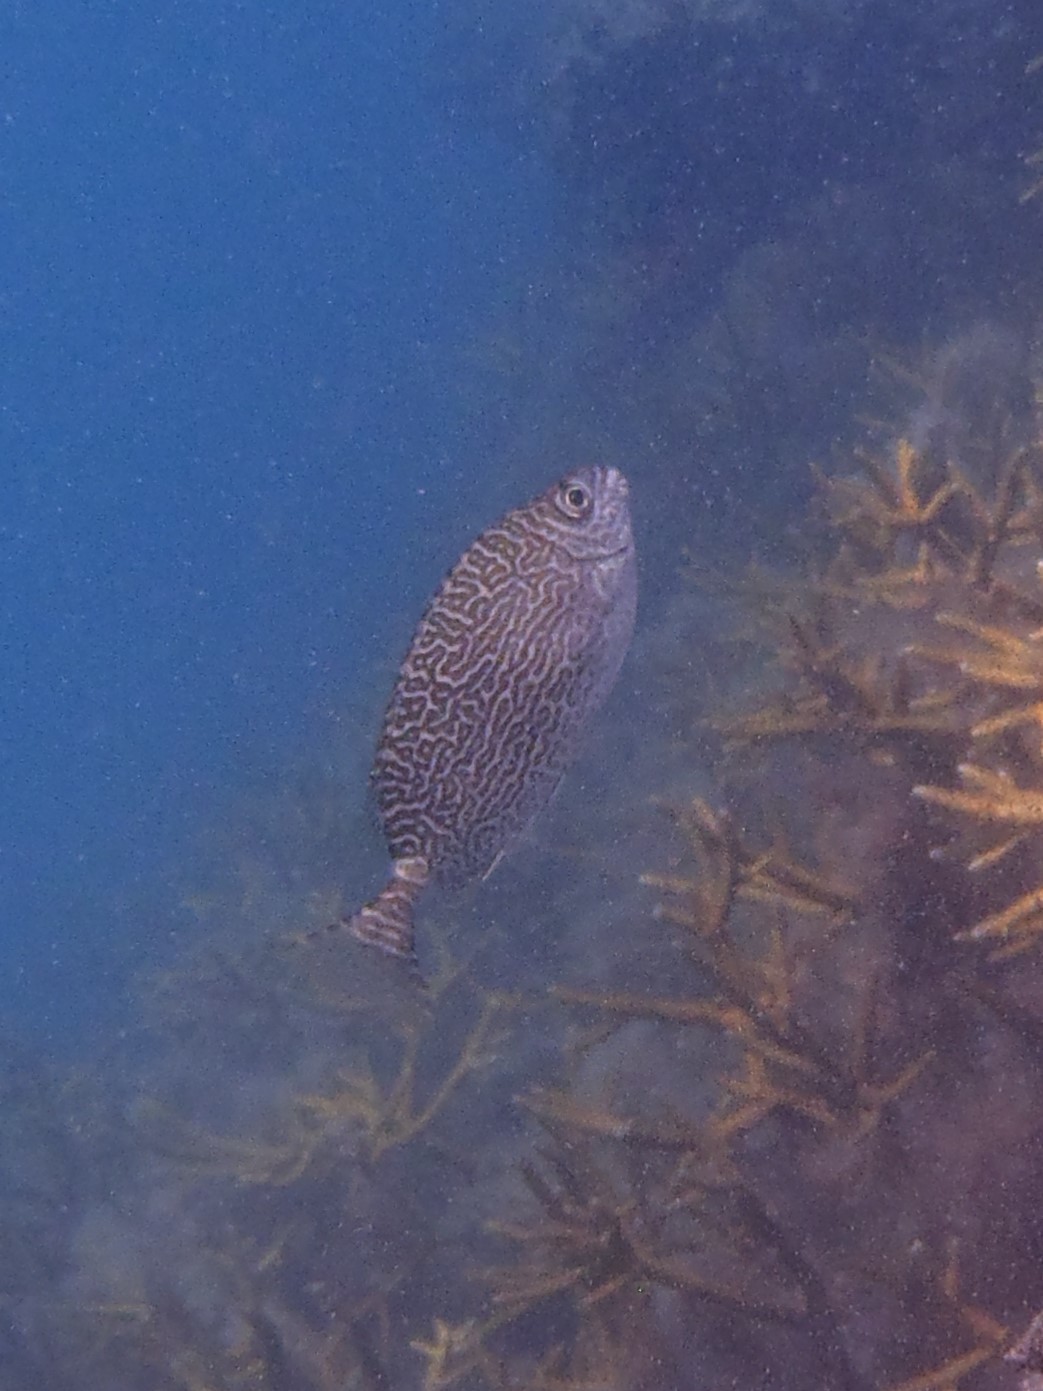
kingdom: Animalia
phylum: Chordata
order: Perciformes
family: Siganidae
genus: Siganus
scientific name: Siganus spinus
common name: Scribbled rabbitfish
